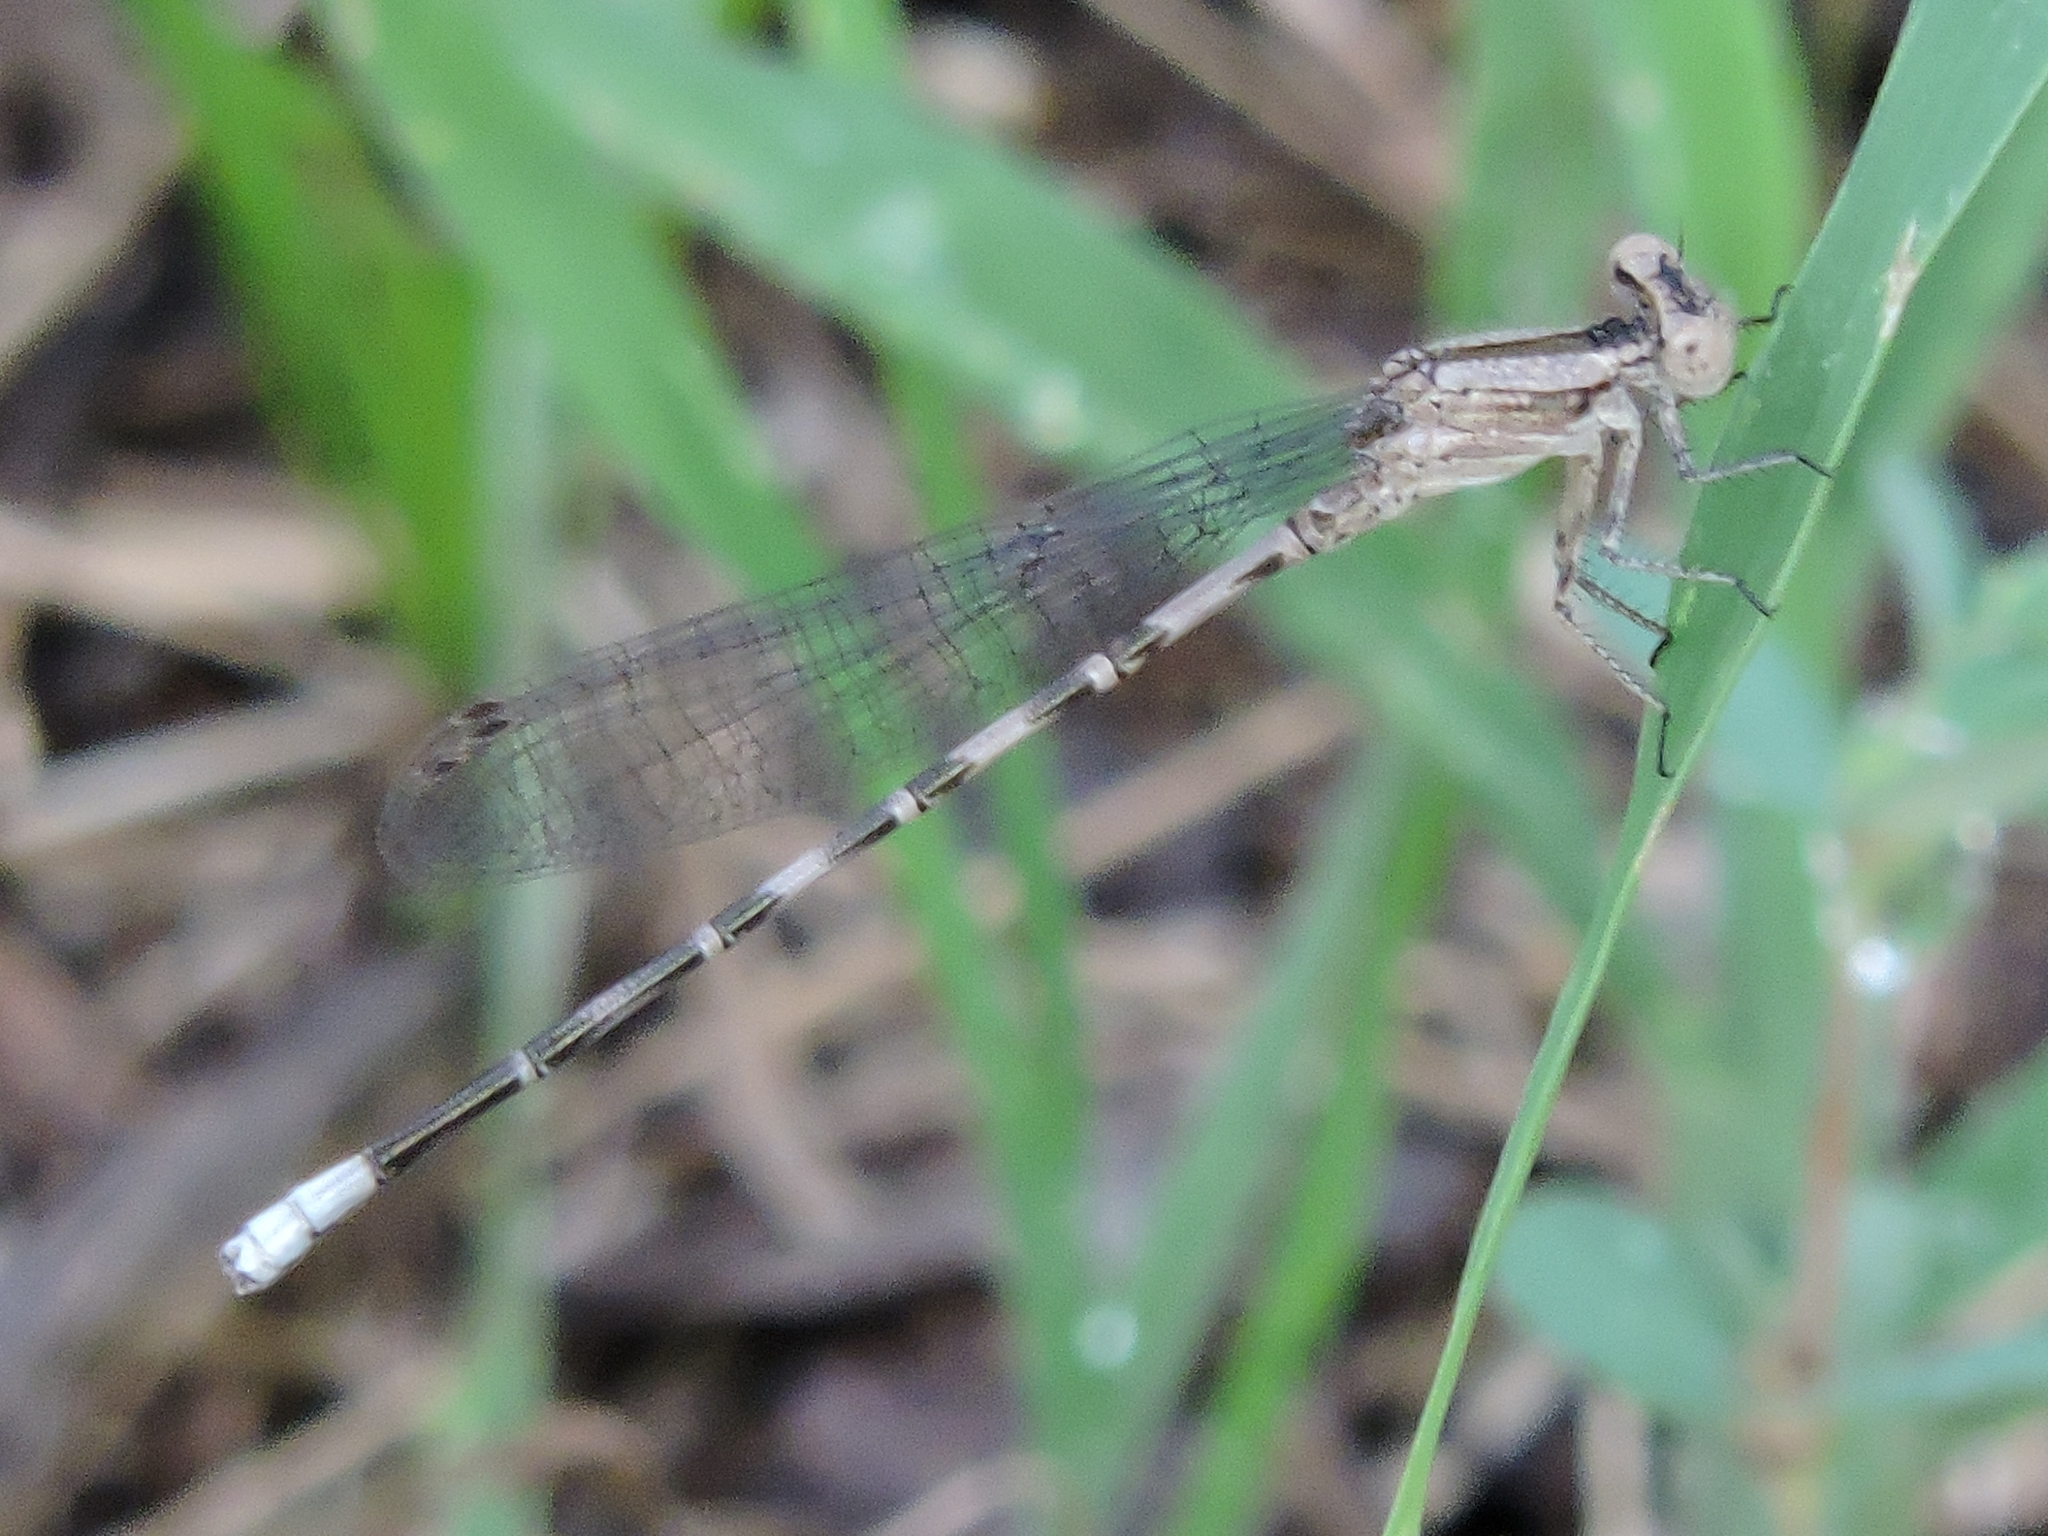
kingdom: Animalia
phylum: Arthropoda
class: Insecta
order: Odonata
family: Coenagrionidae
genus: Argia
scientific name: Argia immunda
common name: Kiowa dancer
